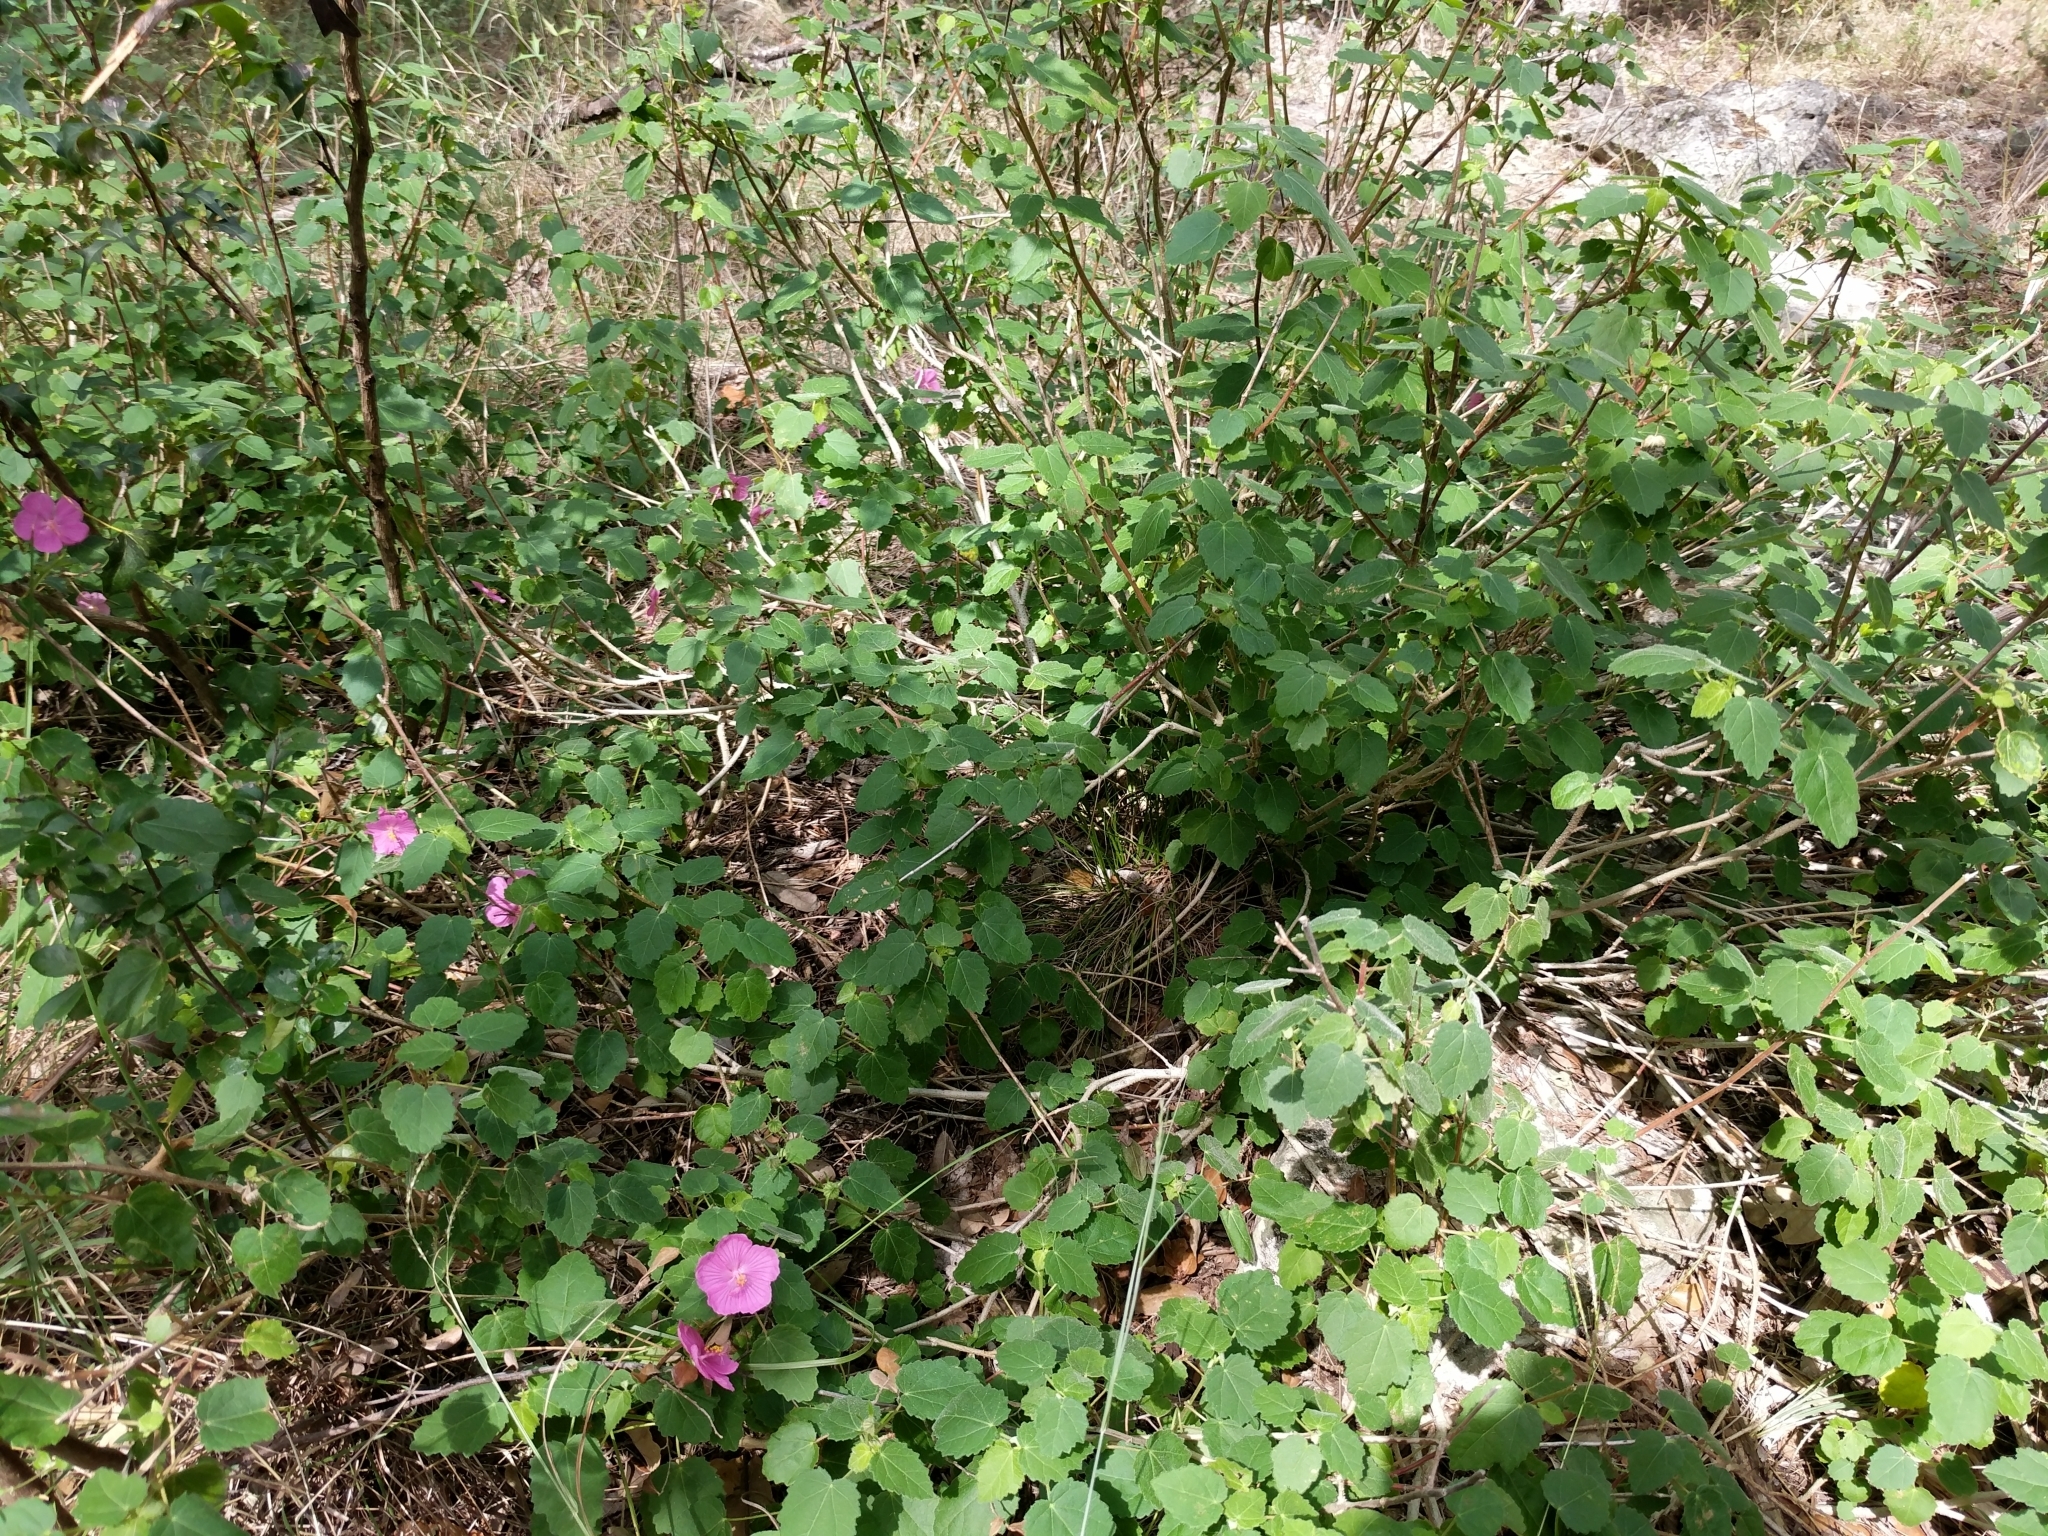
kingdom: Plantae
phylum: Tracheophyta
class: Magnoliopsida
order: Malvales
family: Malvaceae
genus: Pavonia
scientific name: Pavonia lasiopetala
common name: Texas swamp-mallow
